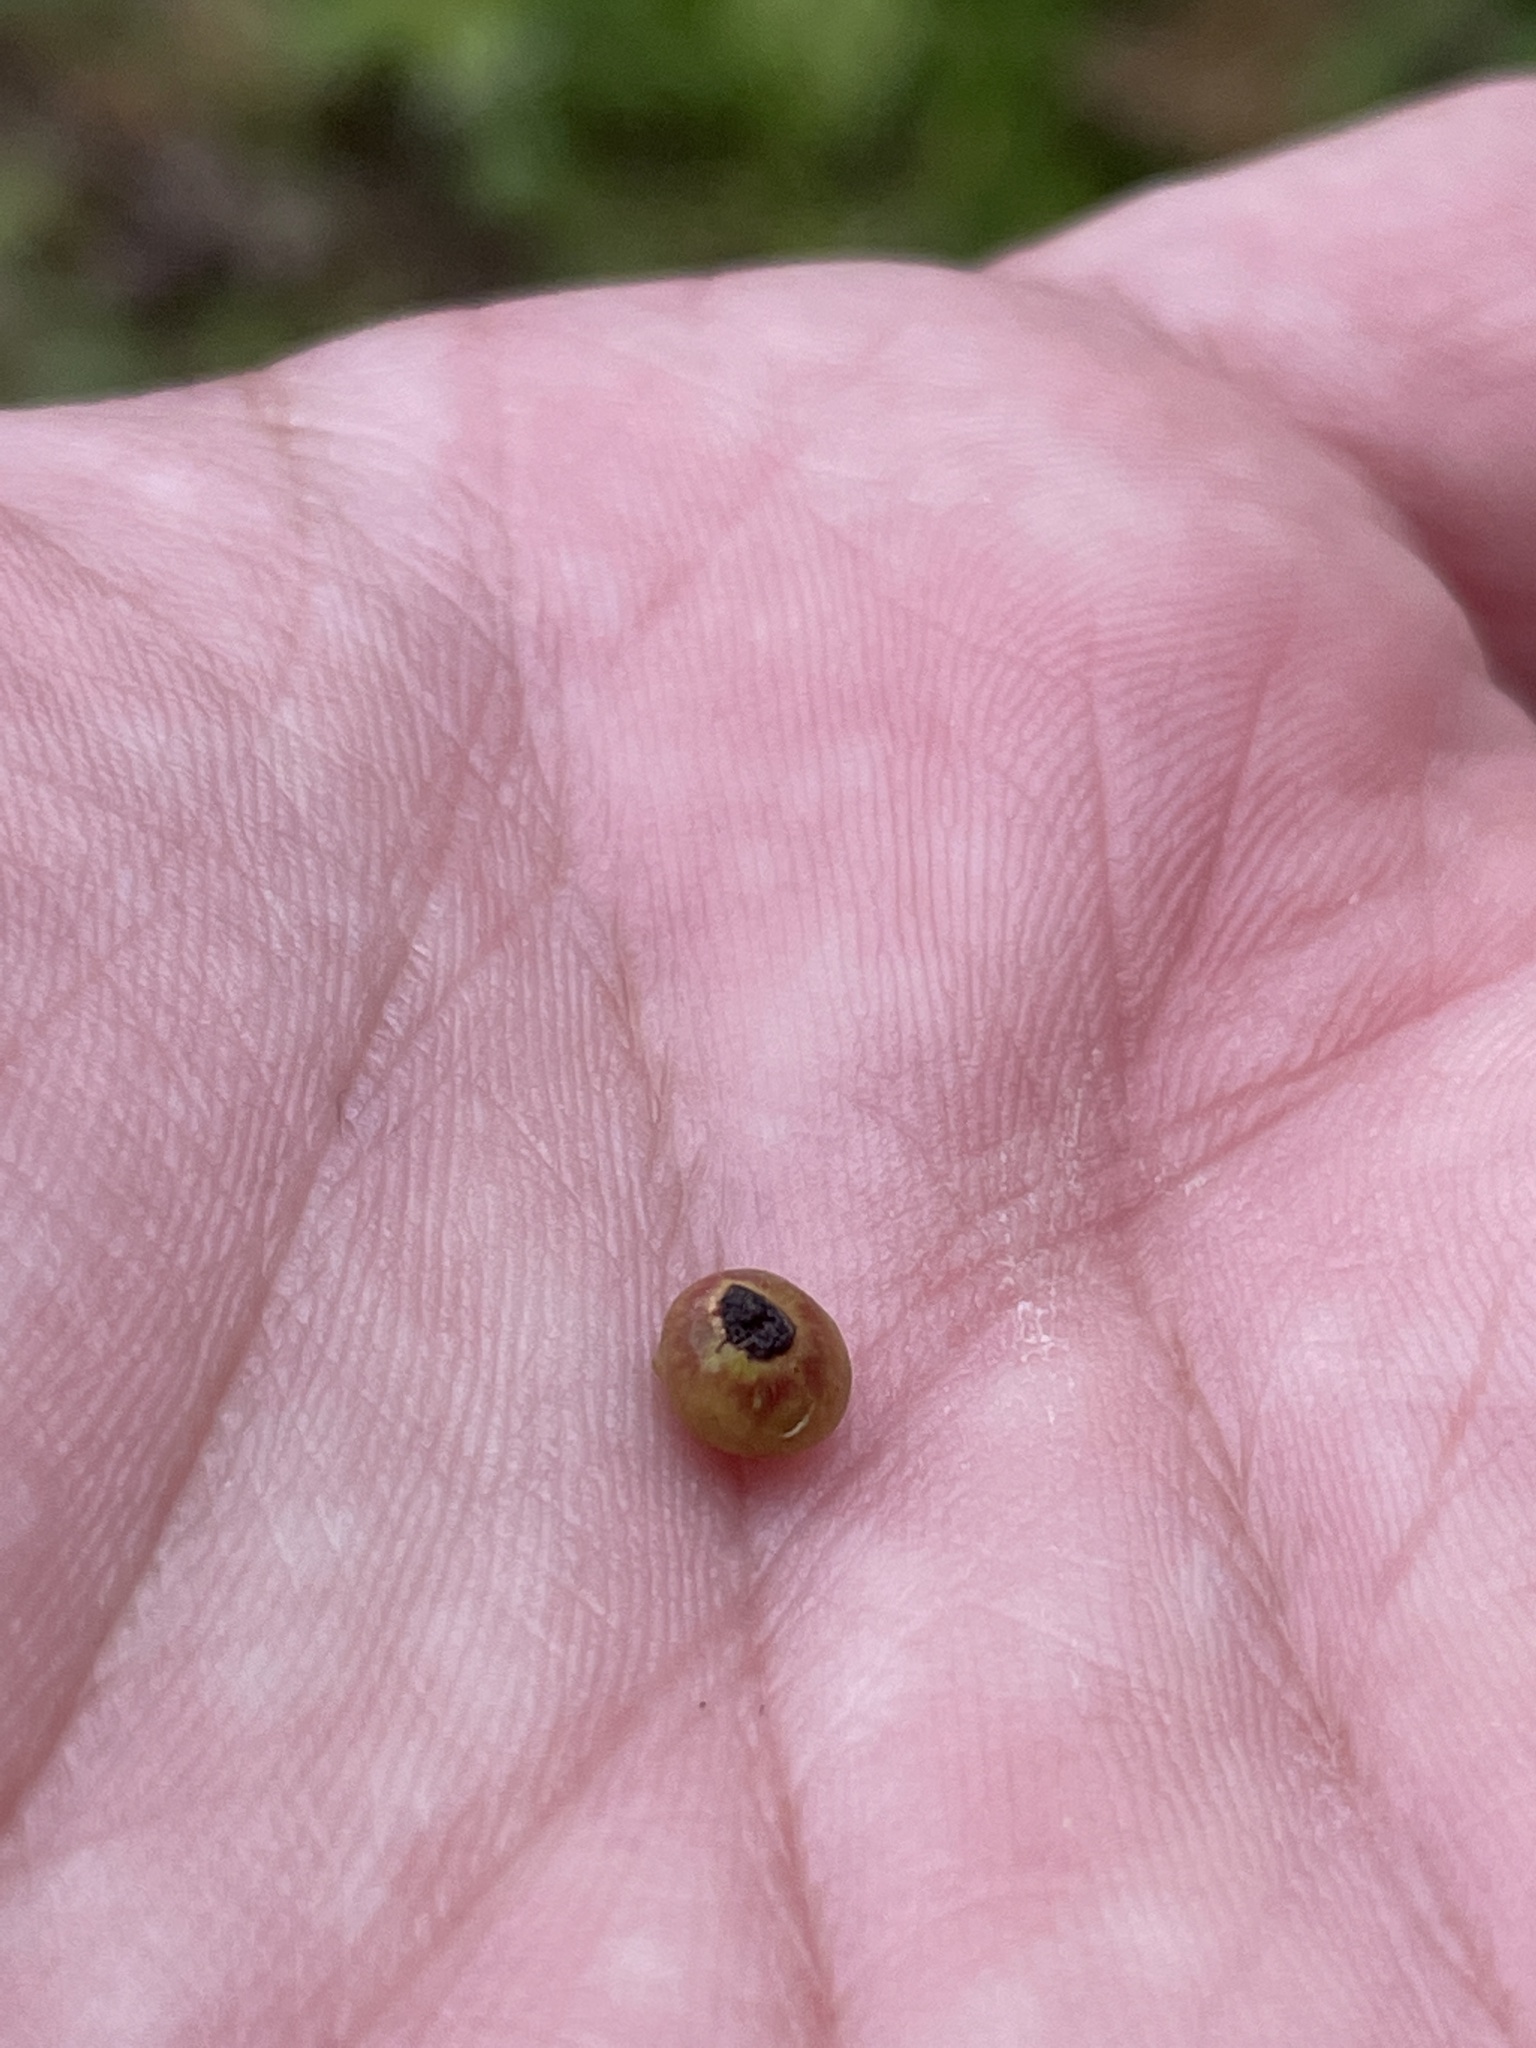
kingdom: Animalia
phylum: Arthropoda
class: Insecta
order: Hymenoptera
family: Cynipidae
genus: Kokkocynips
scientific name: Kokkocynips rileyi
